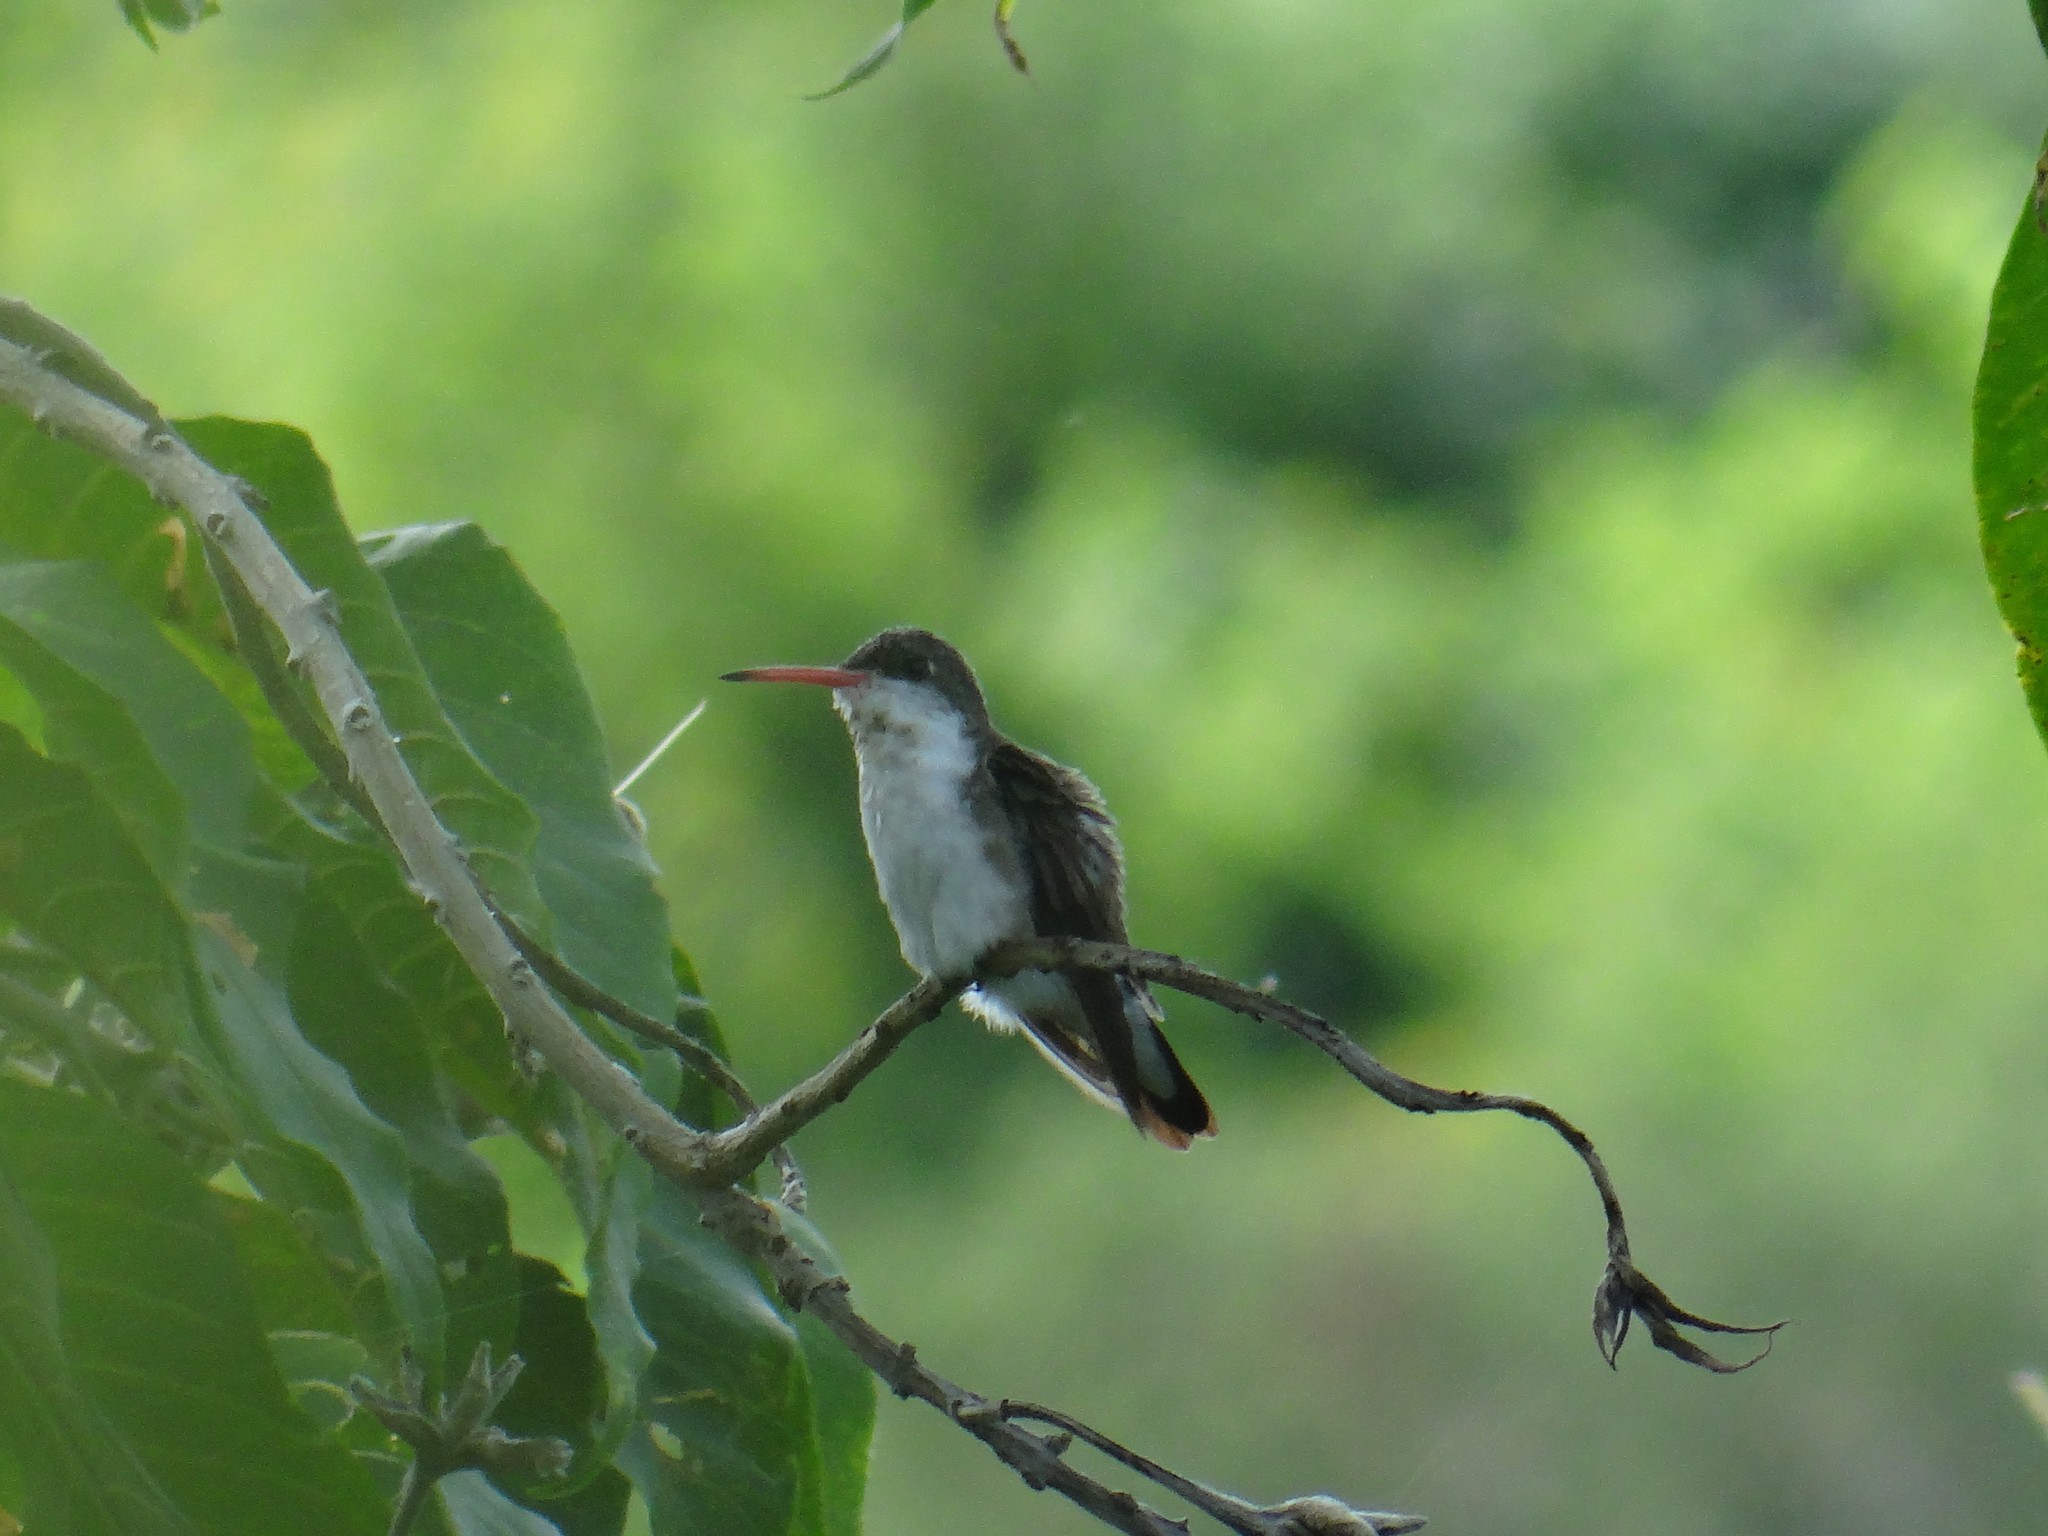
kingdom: Animalia
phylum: Chordata
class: Aves
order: Apodiformes
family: Trochilidae
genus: Leucolia
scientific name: Leucolia violiceps
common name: Violet-crowned hummingbird
